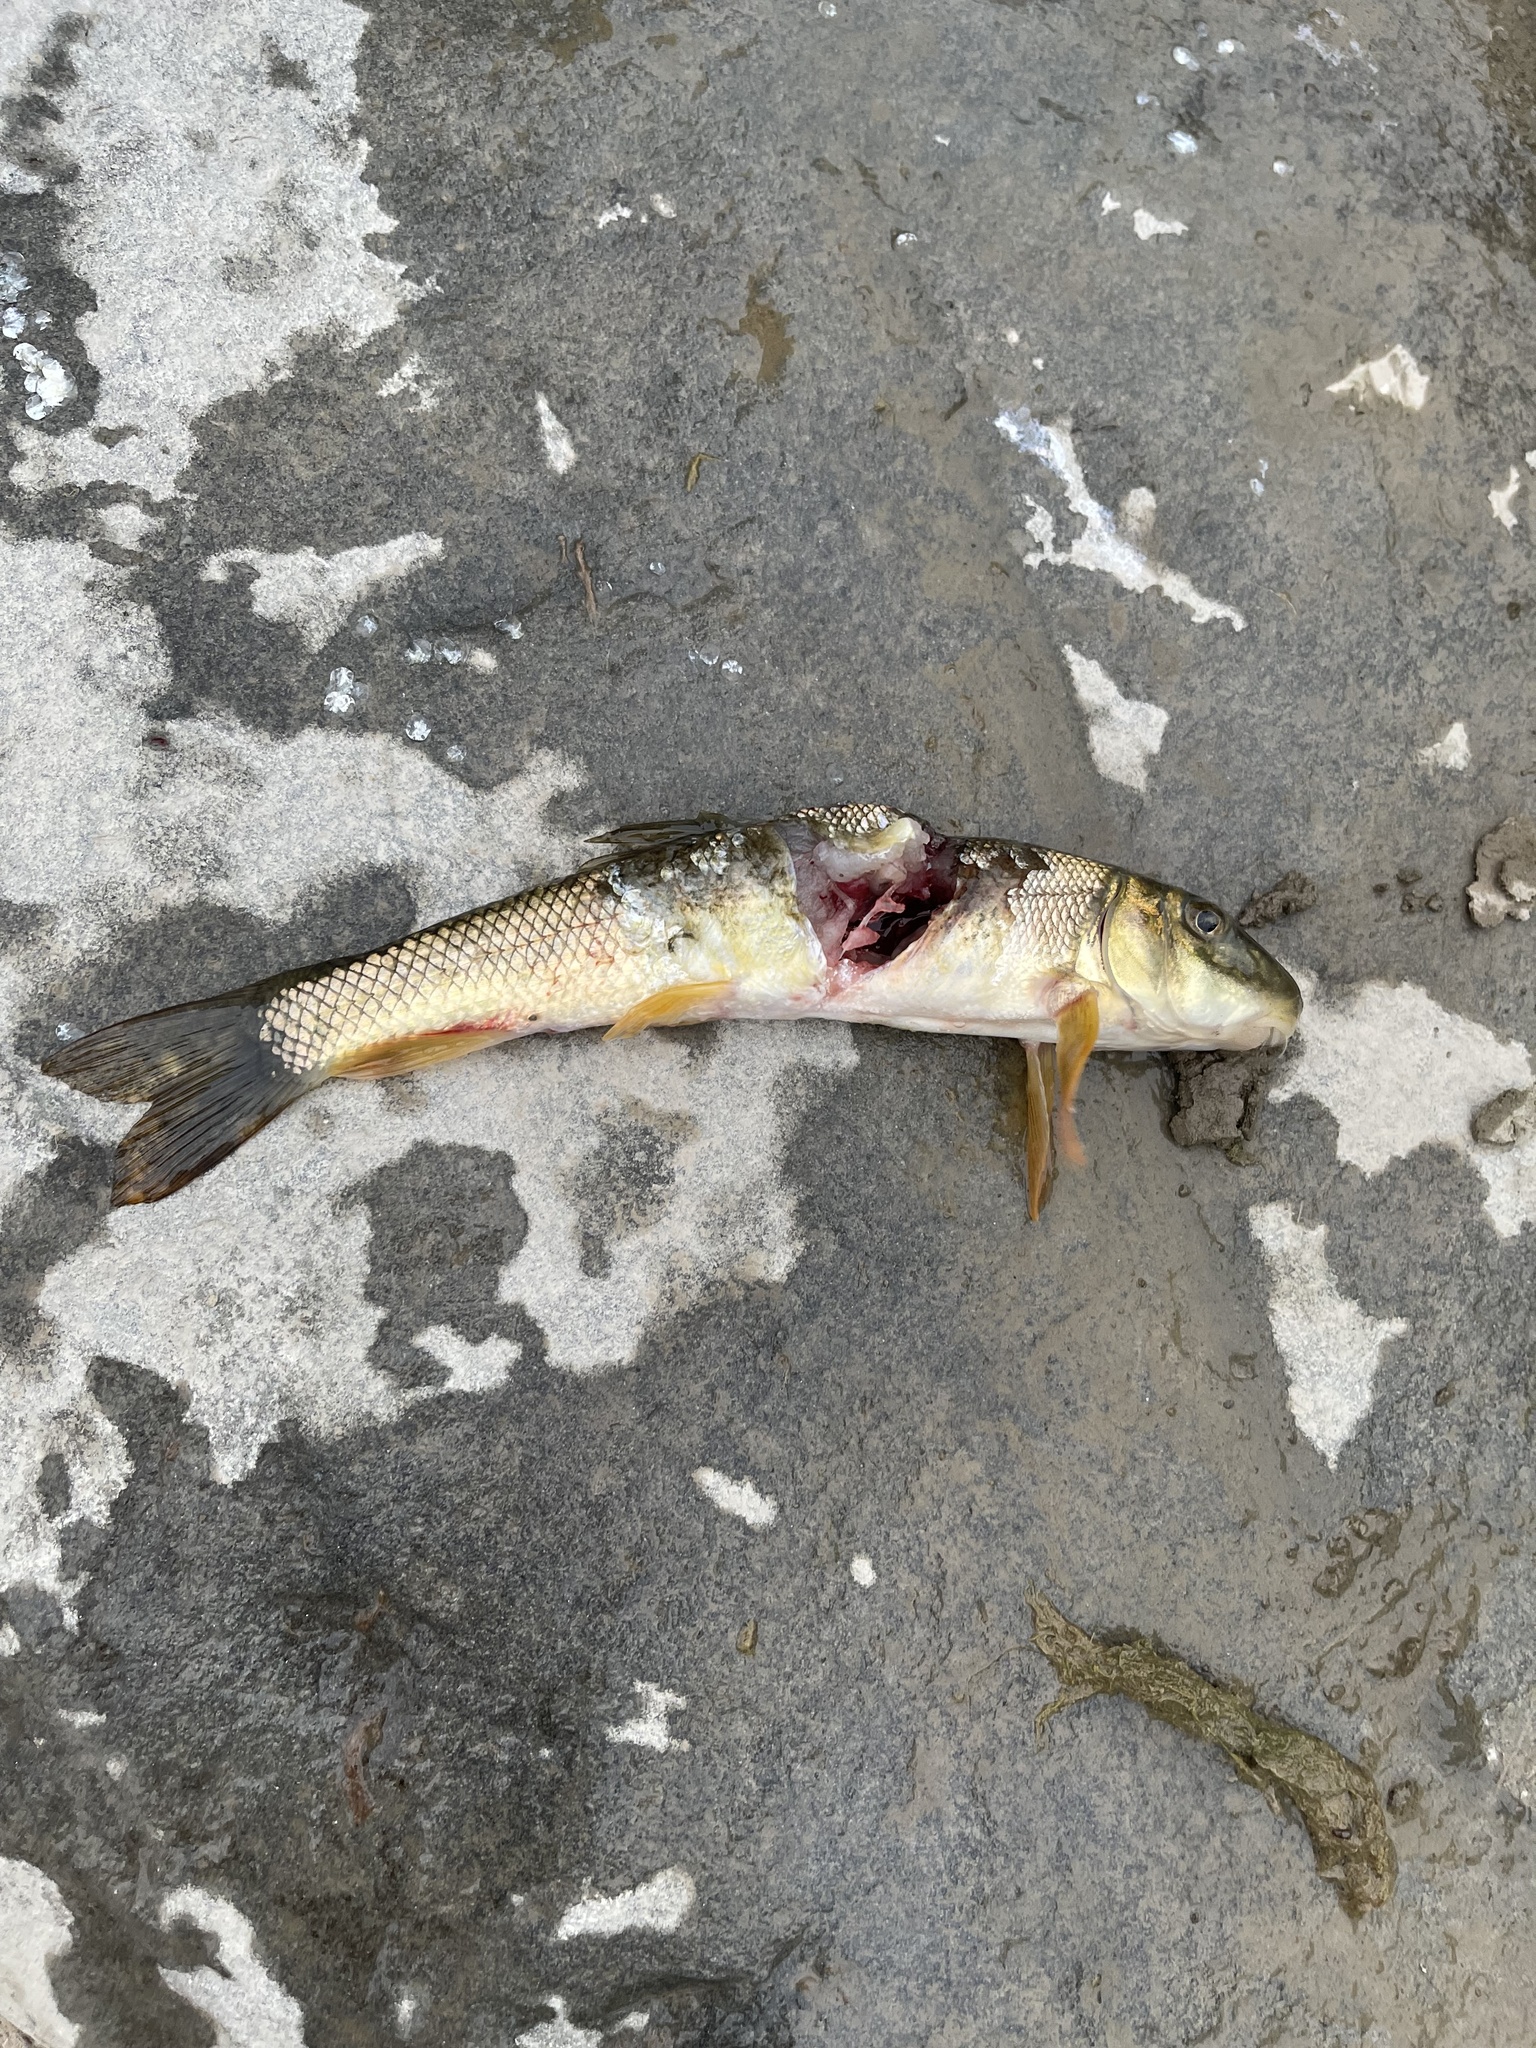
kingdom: Animalia
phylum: Chordata
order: Cypriniformes
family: Catostomidae
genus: Catostomus
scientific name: Catostomus commersonii
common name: White sucker
